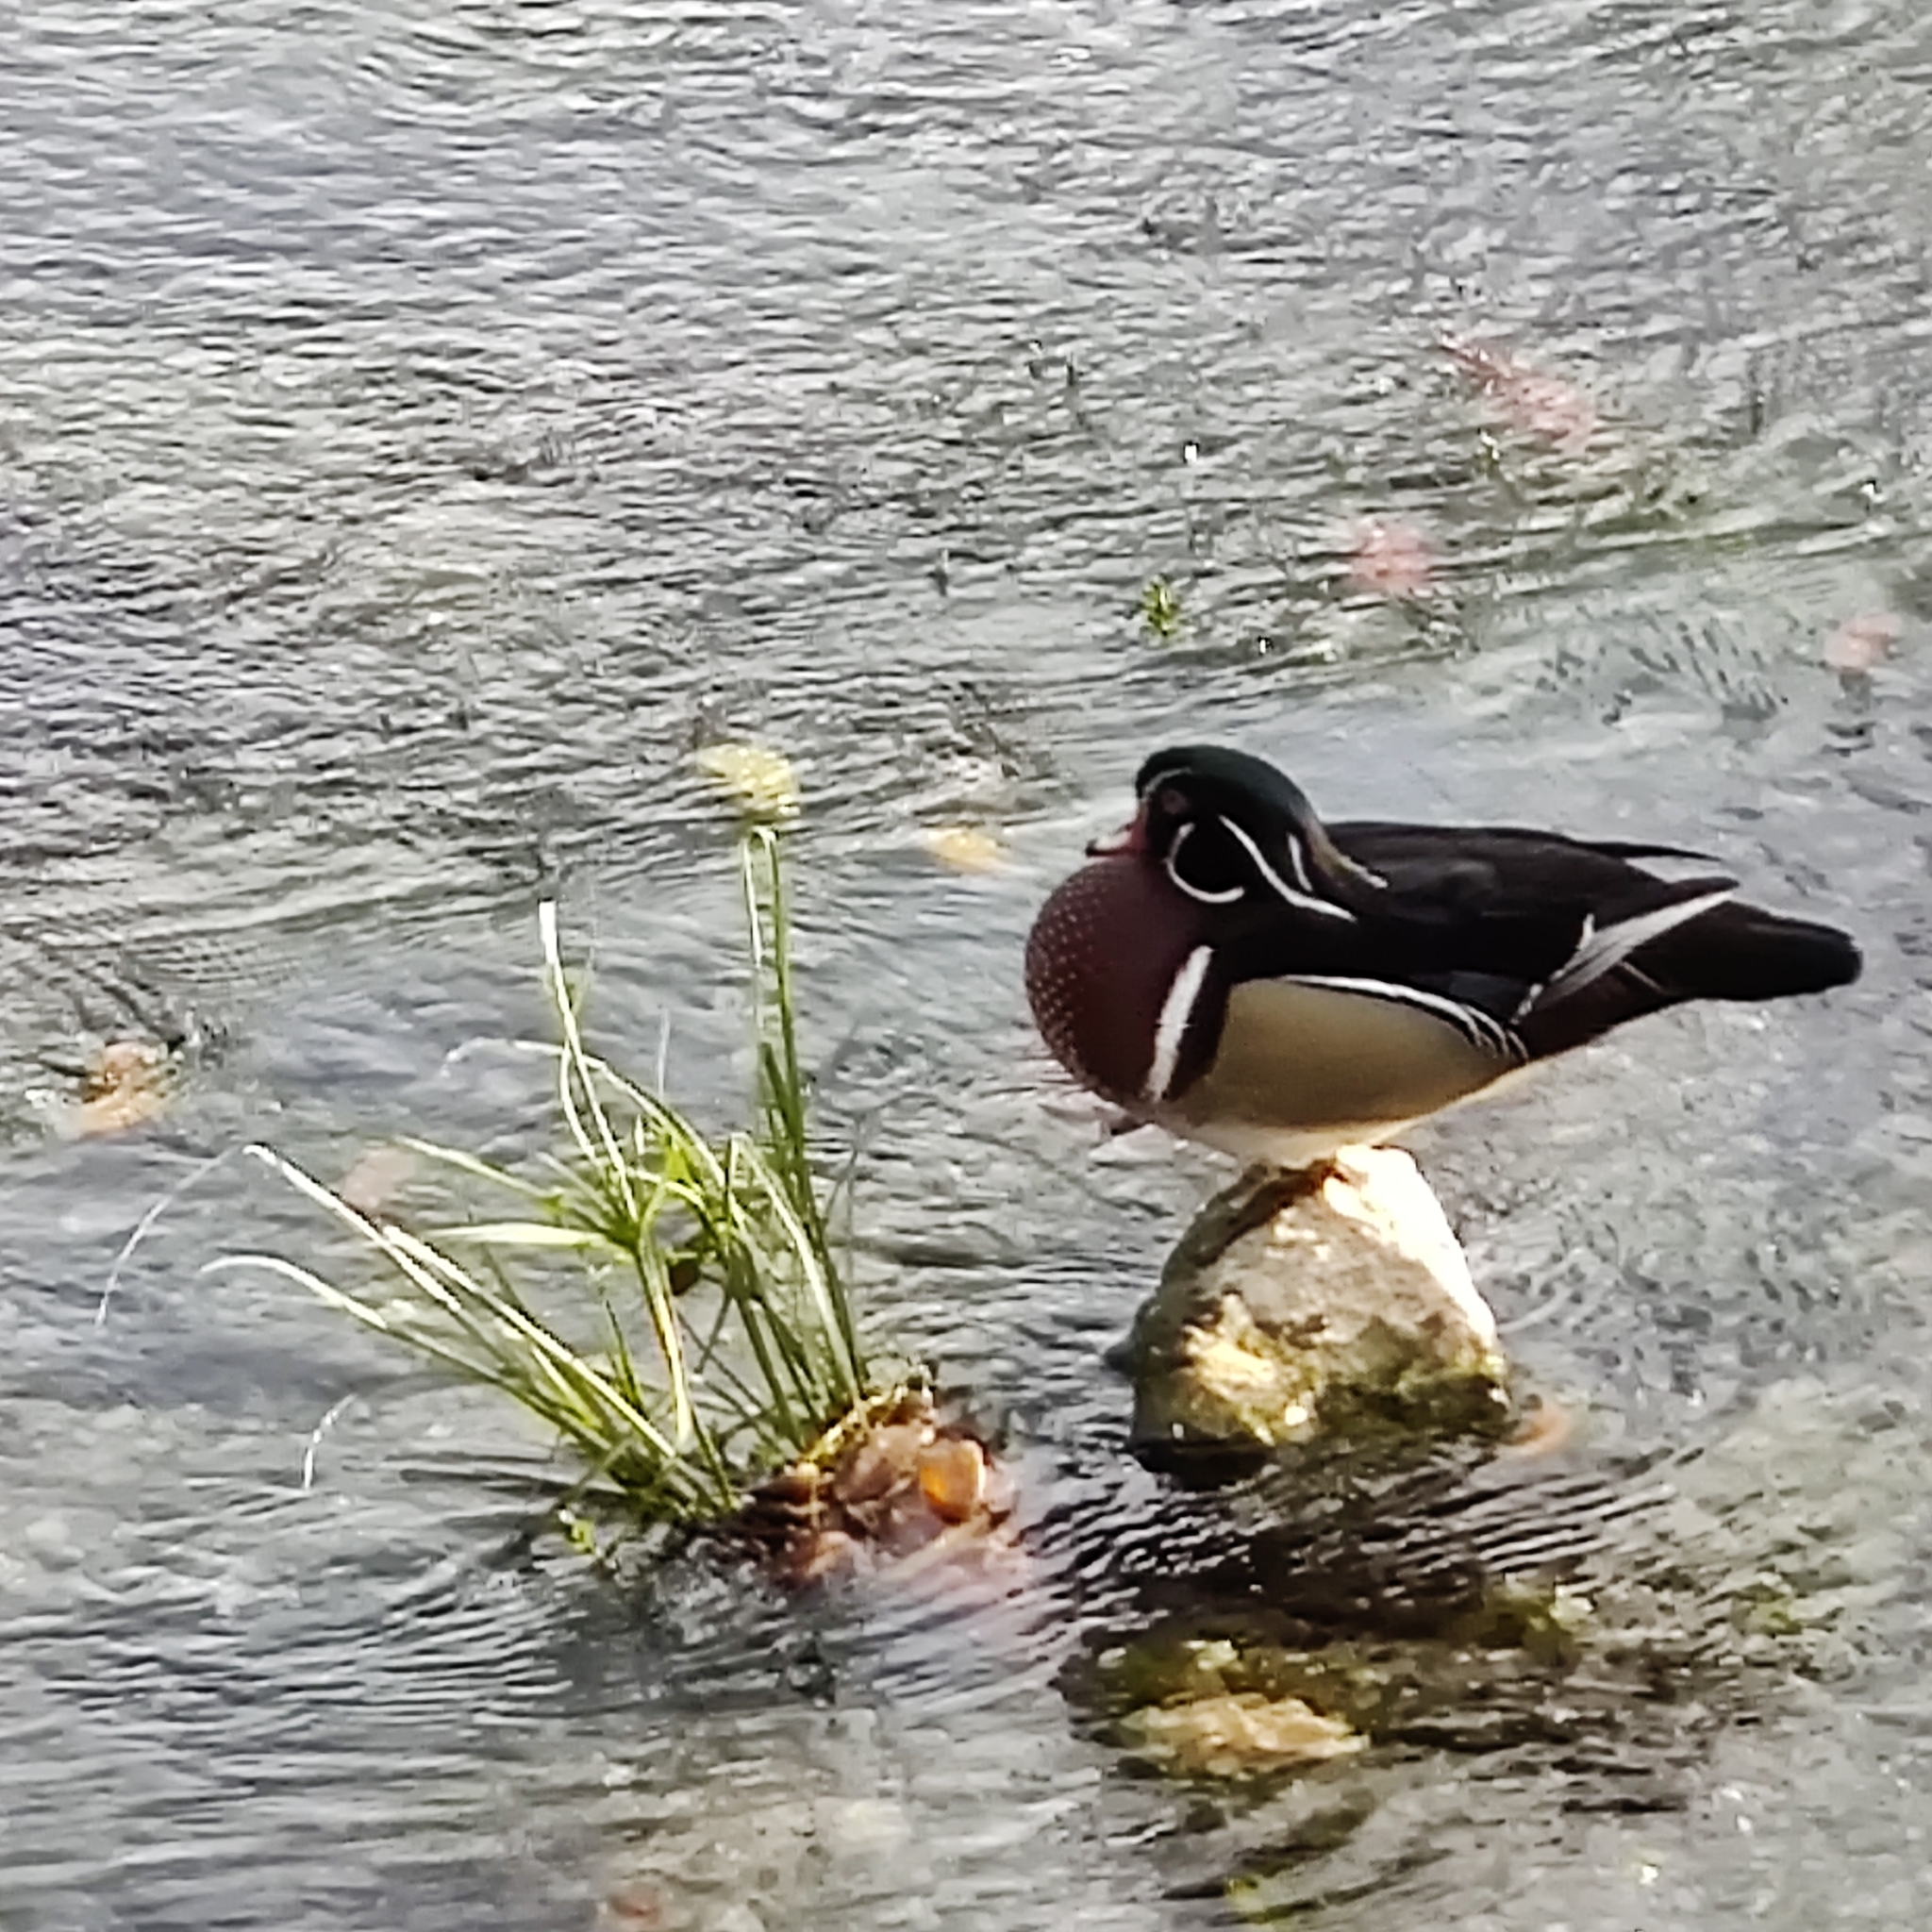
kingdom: Animalia
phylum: Chordata
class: Aves
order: Anseriformes
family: Anatidae
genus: Aix
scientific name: Aix sponsa
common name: Wood duck
